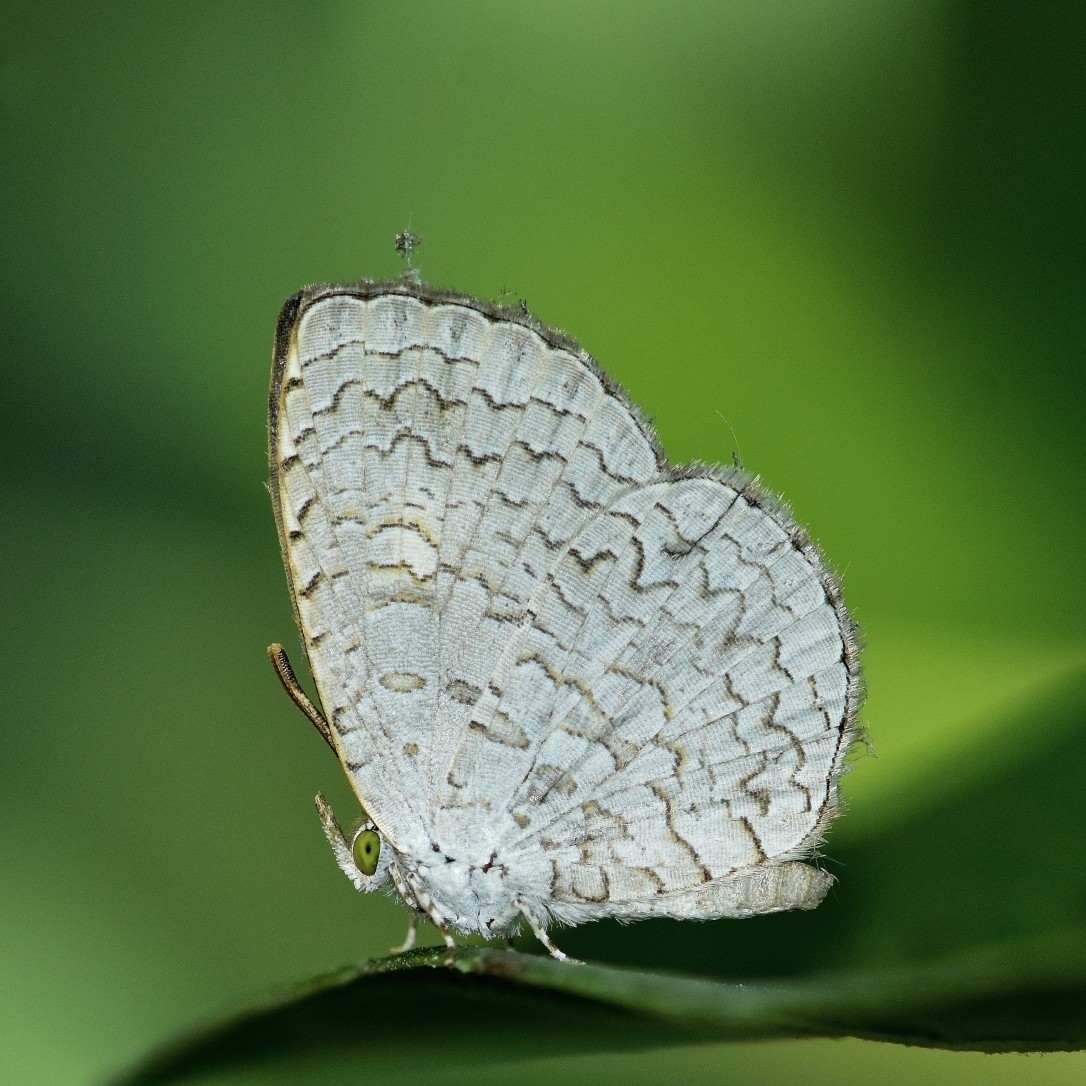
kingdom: Animalia
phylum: Arthropoda
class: Insecta
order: Lepidoptera
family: Lycaenidae
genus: Spalgis
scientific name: Spalgis epius
